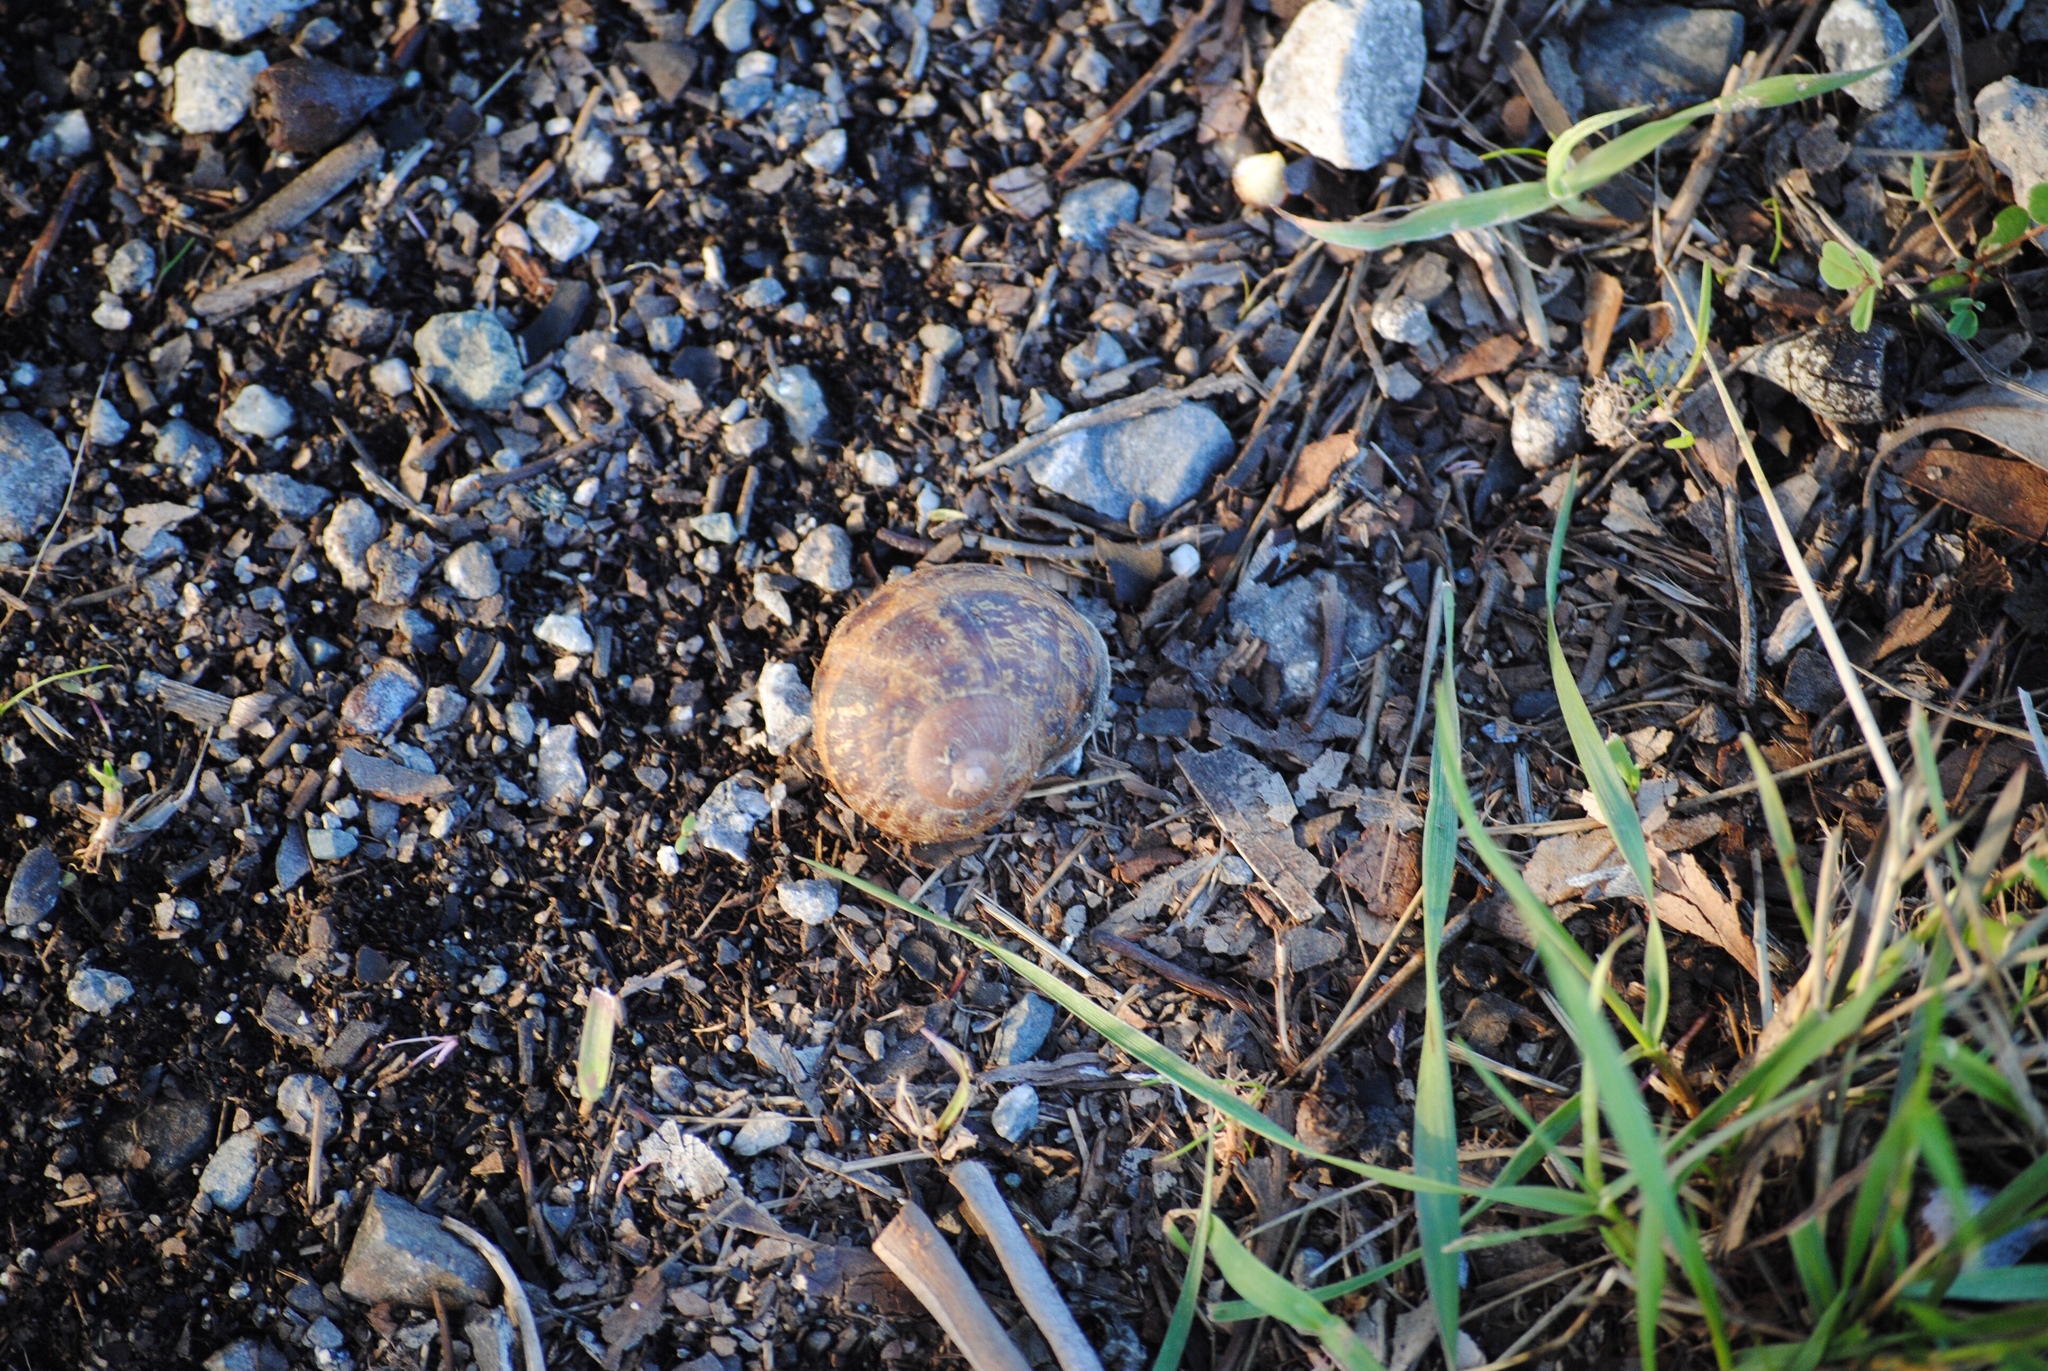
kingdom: Animalia
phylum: Mollusca
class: Gastropoda
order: Stylommatophora
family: Helicidae
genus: Cornu
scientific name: Cornu aspersum
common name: Brown garden snail
